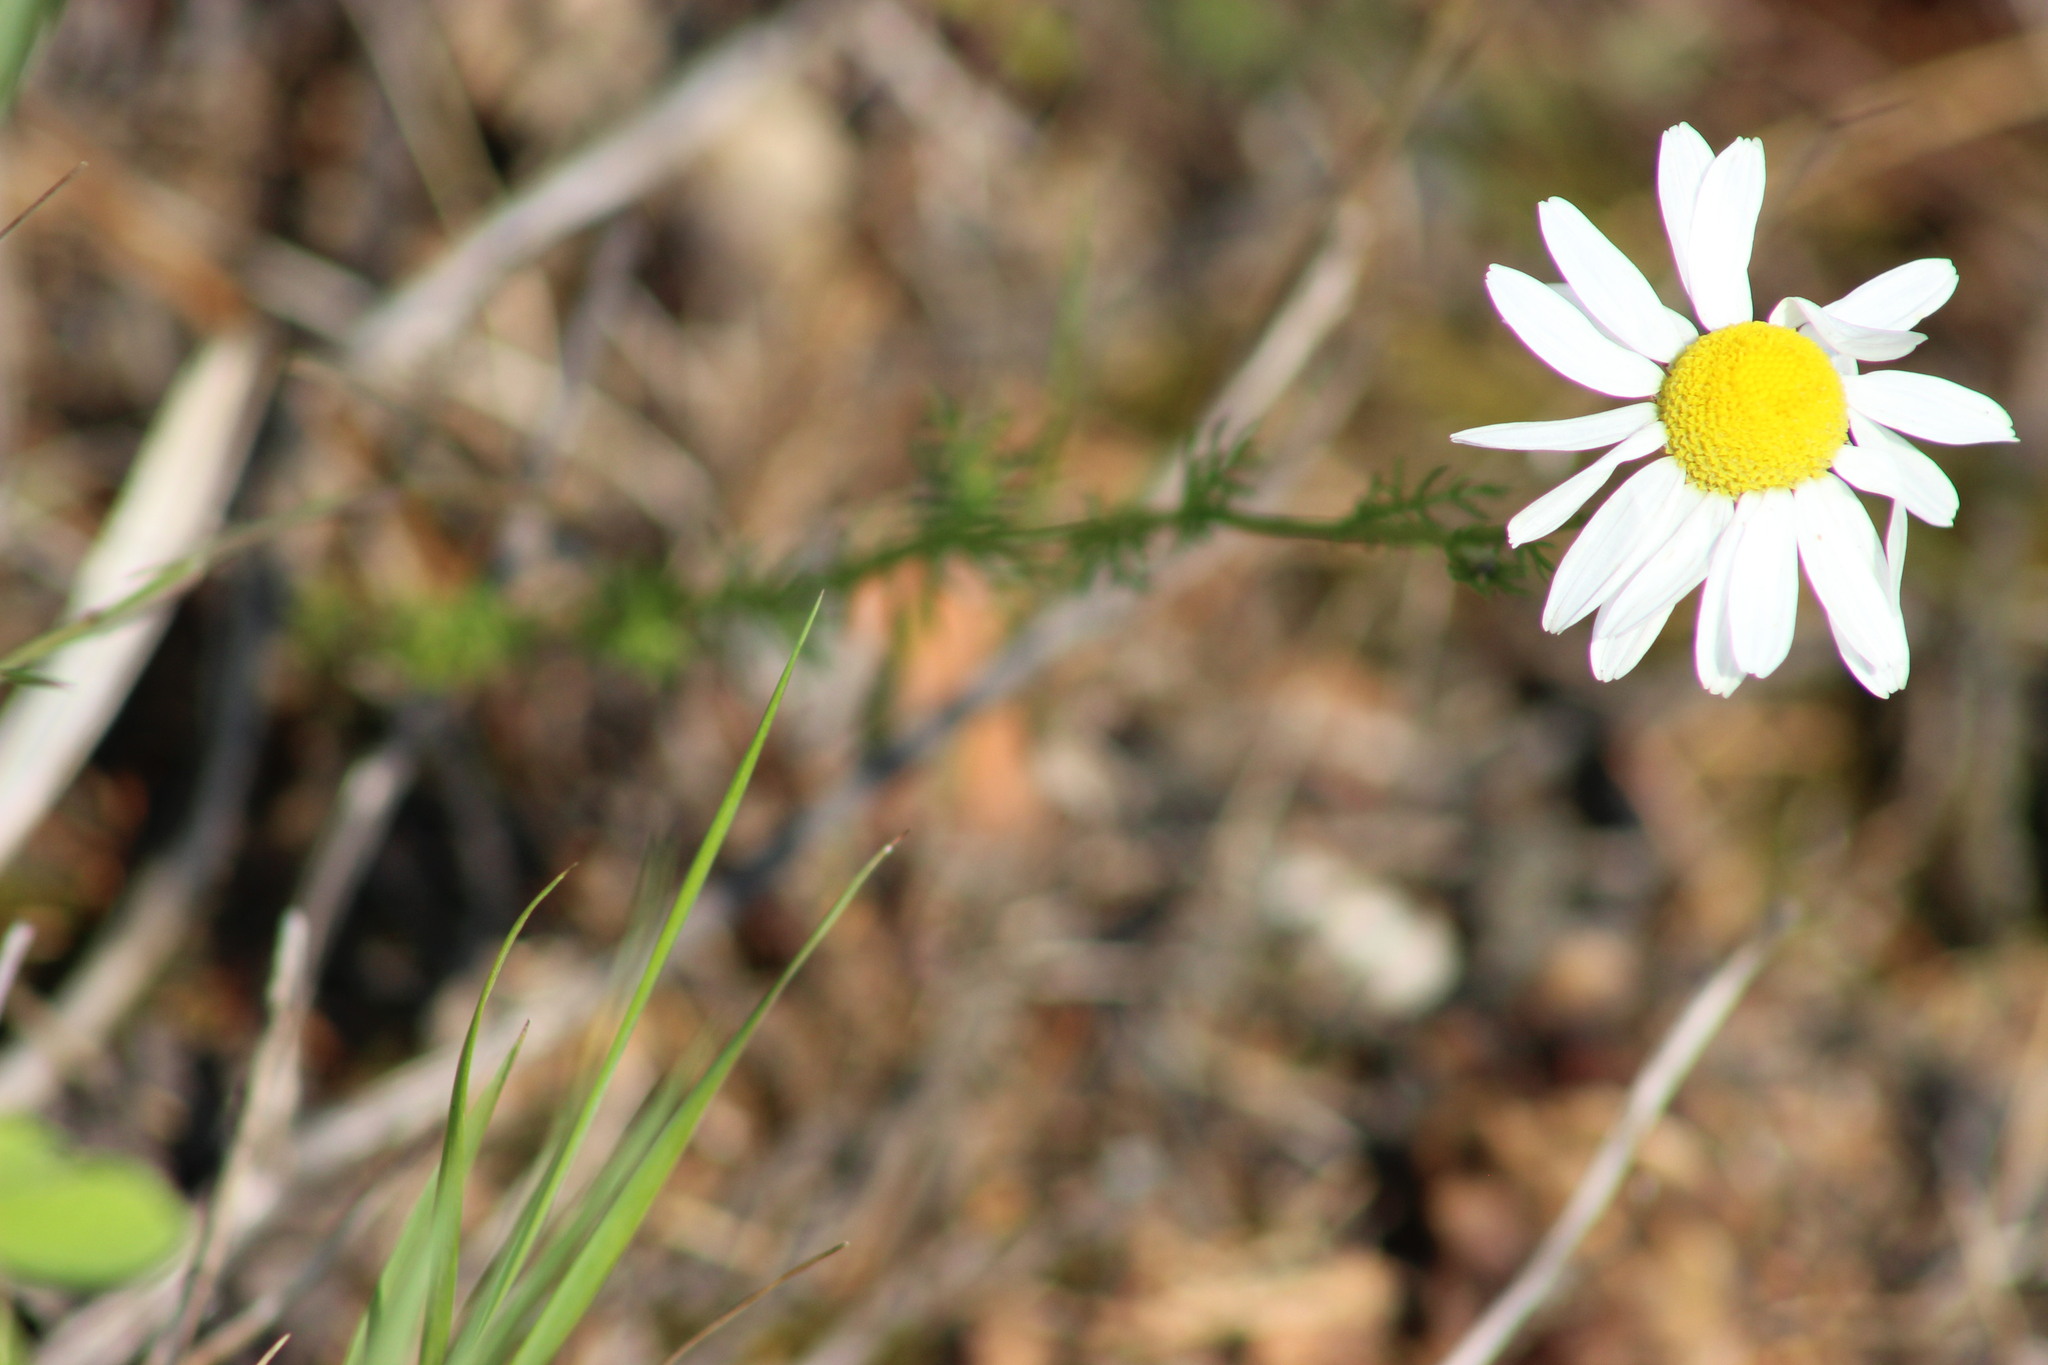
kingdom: Plantae
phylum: Tracheophyta
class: Magnoliopsida
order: Asterales
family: Asteraceae
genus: Tripleurospermum
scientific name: Tripleurospermum inodorum
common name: Scentless mayweed
